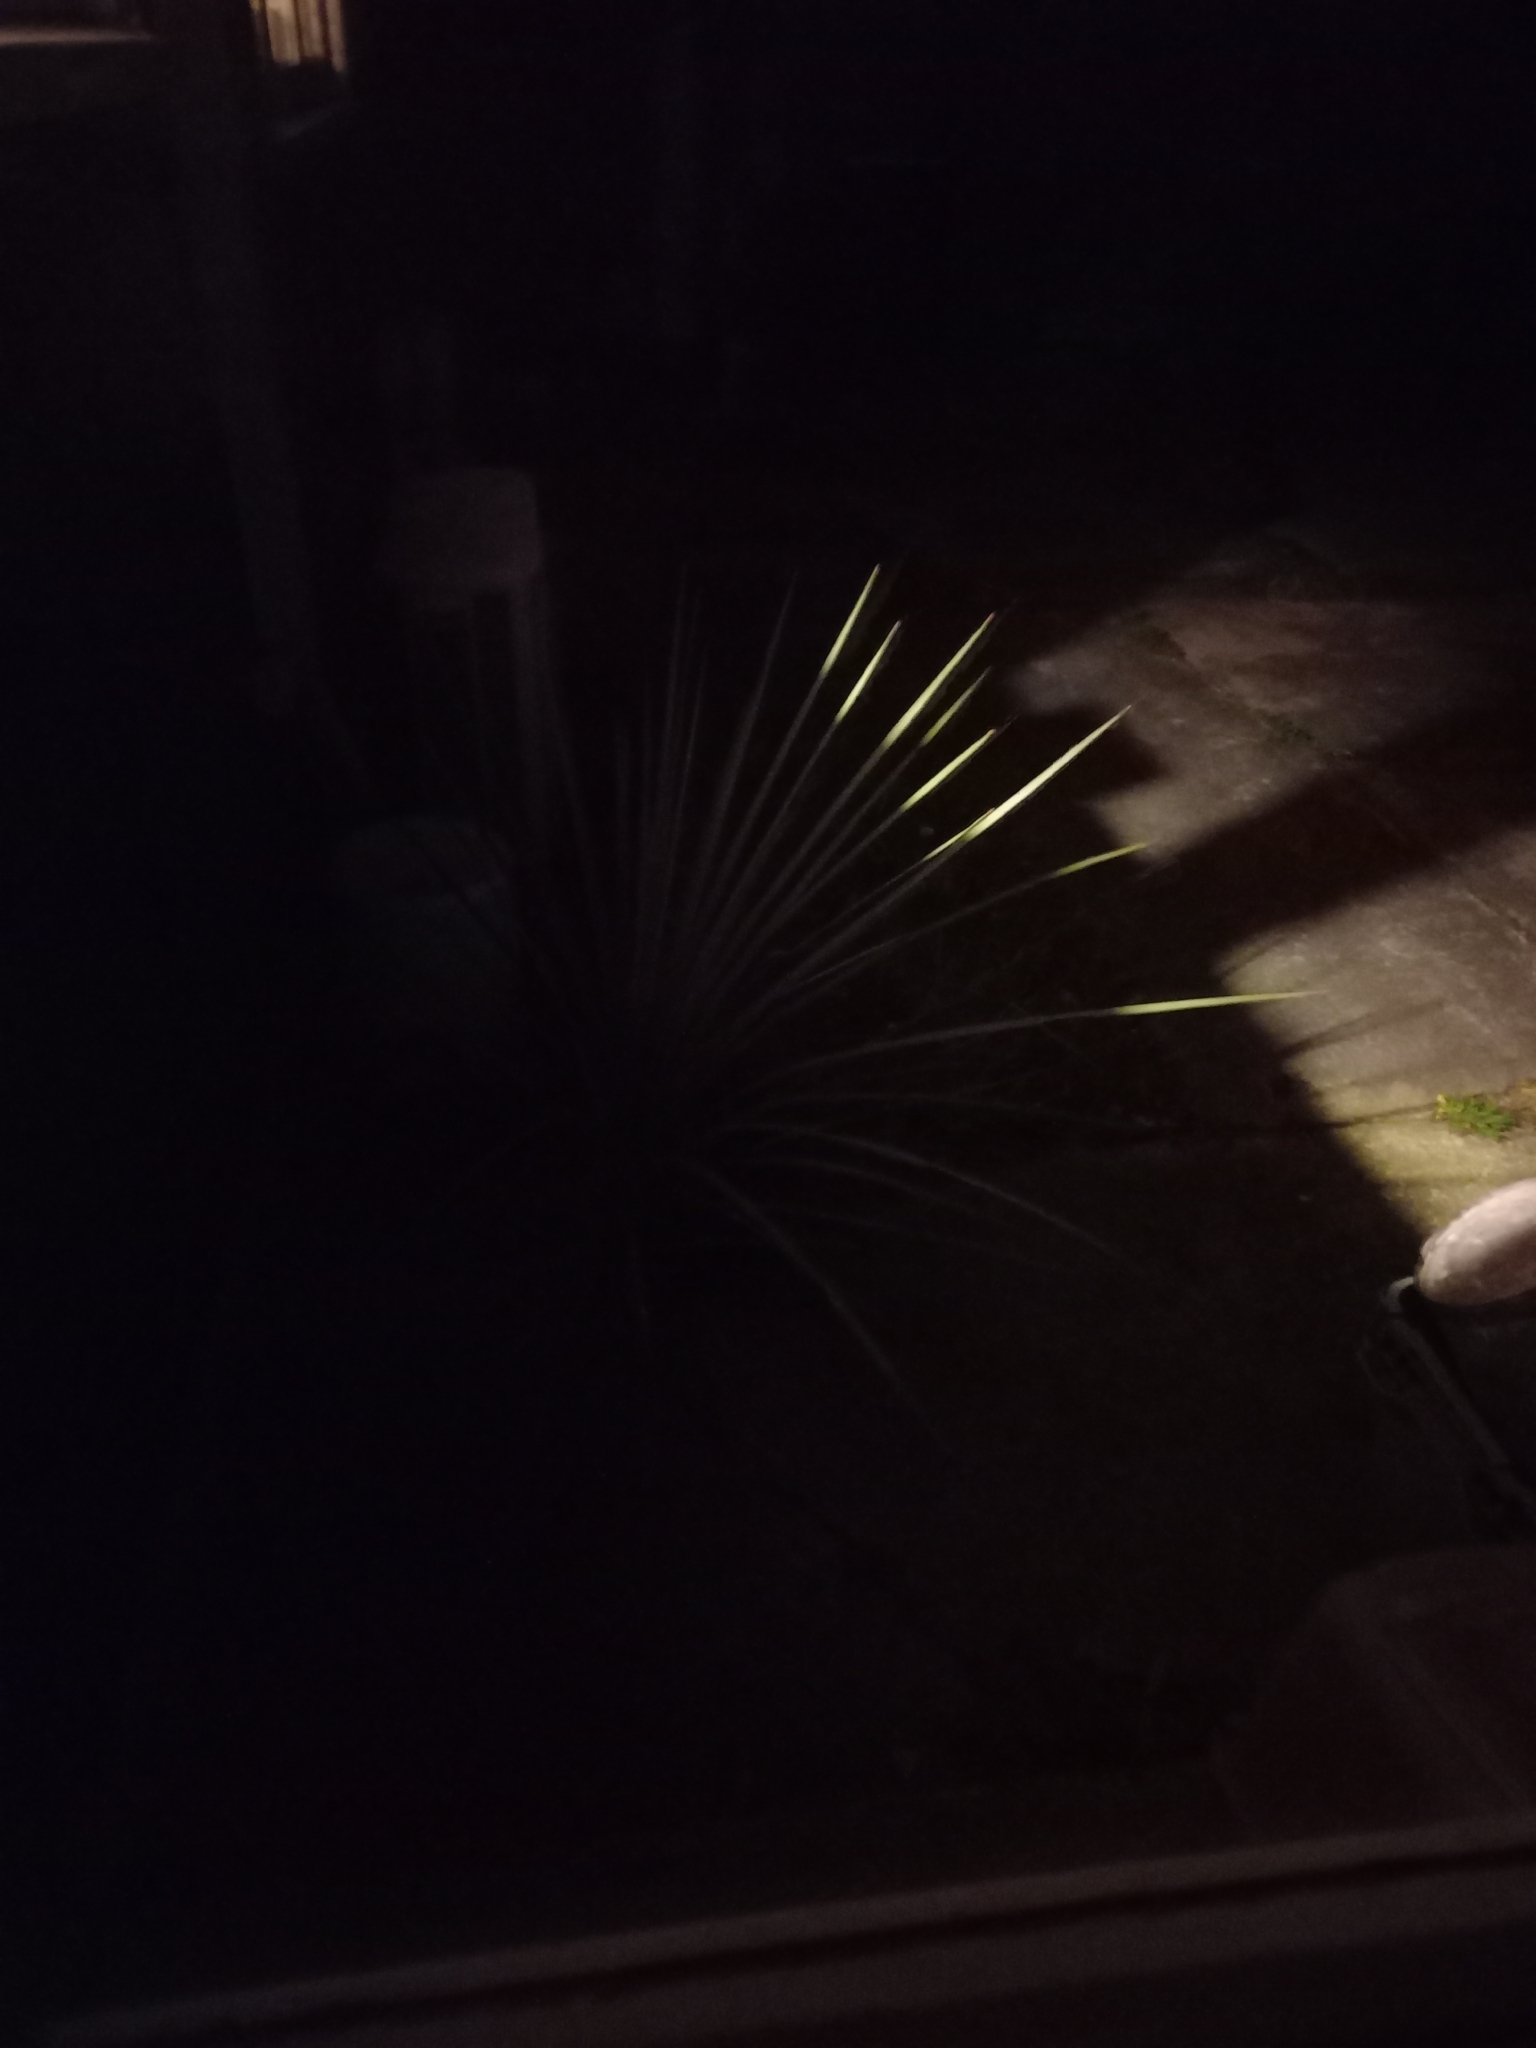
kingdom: Plantae
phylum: Tracheophyta
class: Liliopsida
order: Asparagales
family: Asparagaceae
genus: Cordyline
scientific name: Cordyline australis
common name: Cabbage-palm
